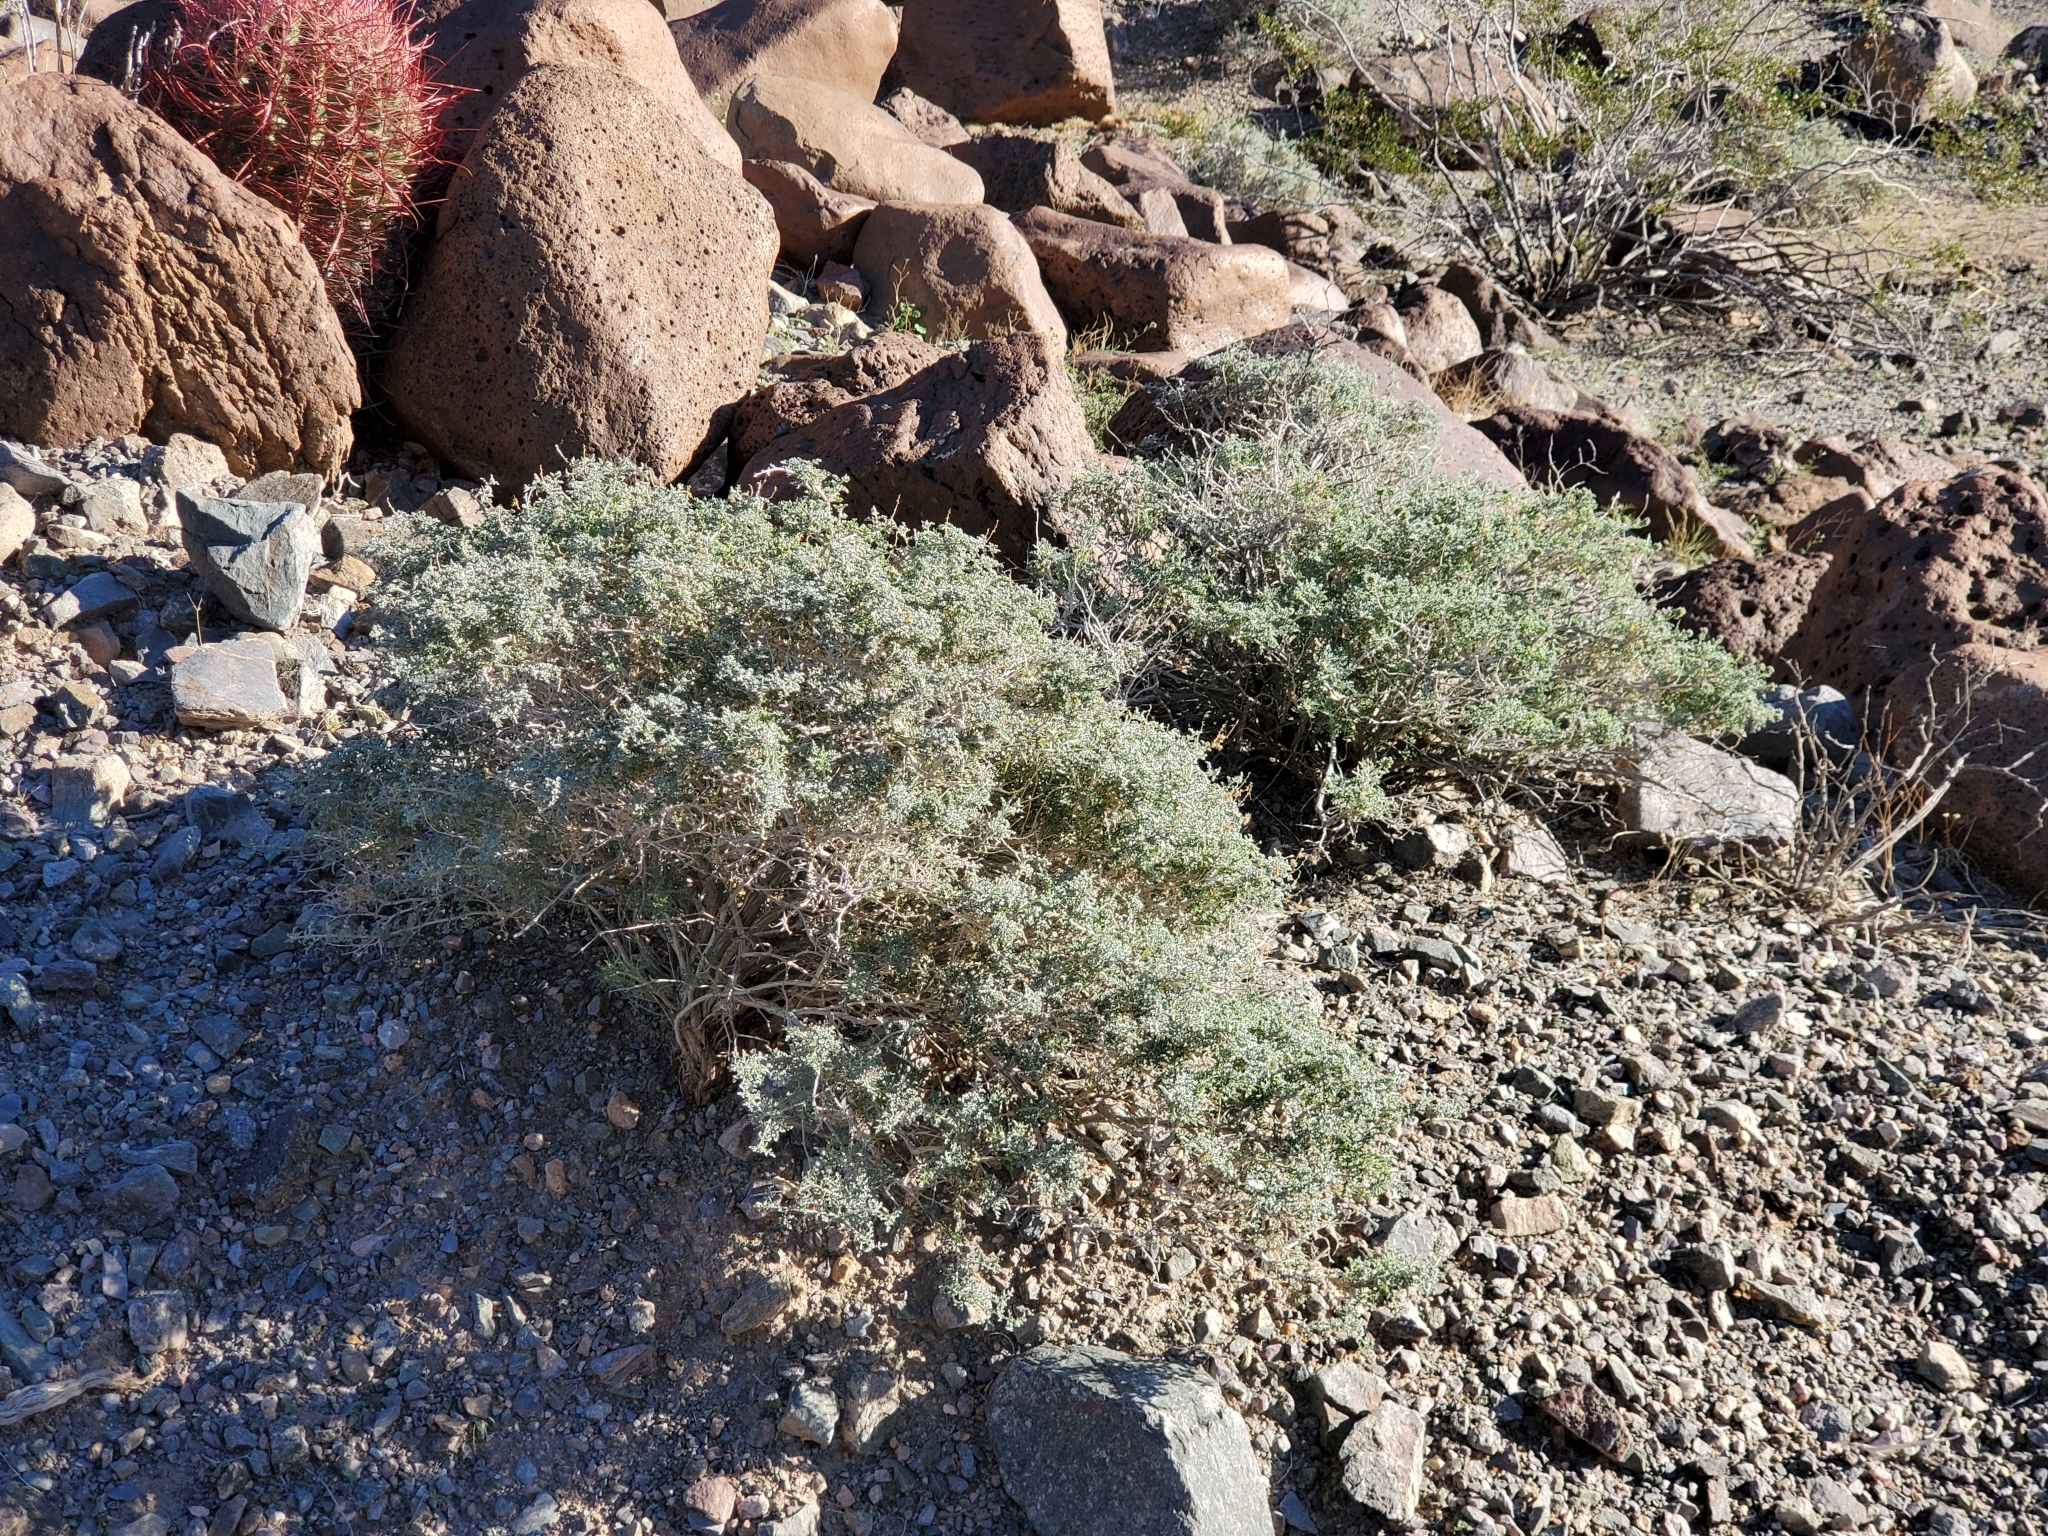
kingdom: Plantae
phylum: Tracheophyta
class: Magnoliopsida
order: Asterales
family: Asteraceae
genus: Ambrosia
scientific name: Ambrosia dumosa
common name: Bur-sage
